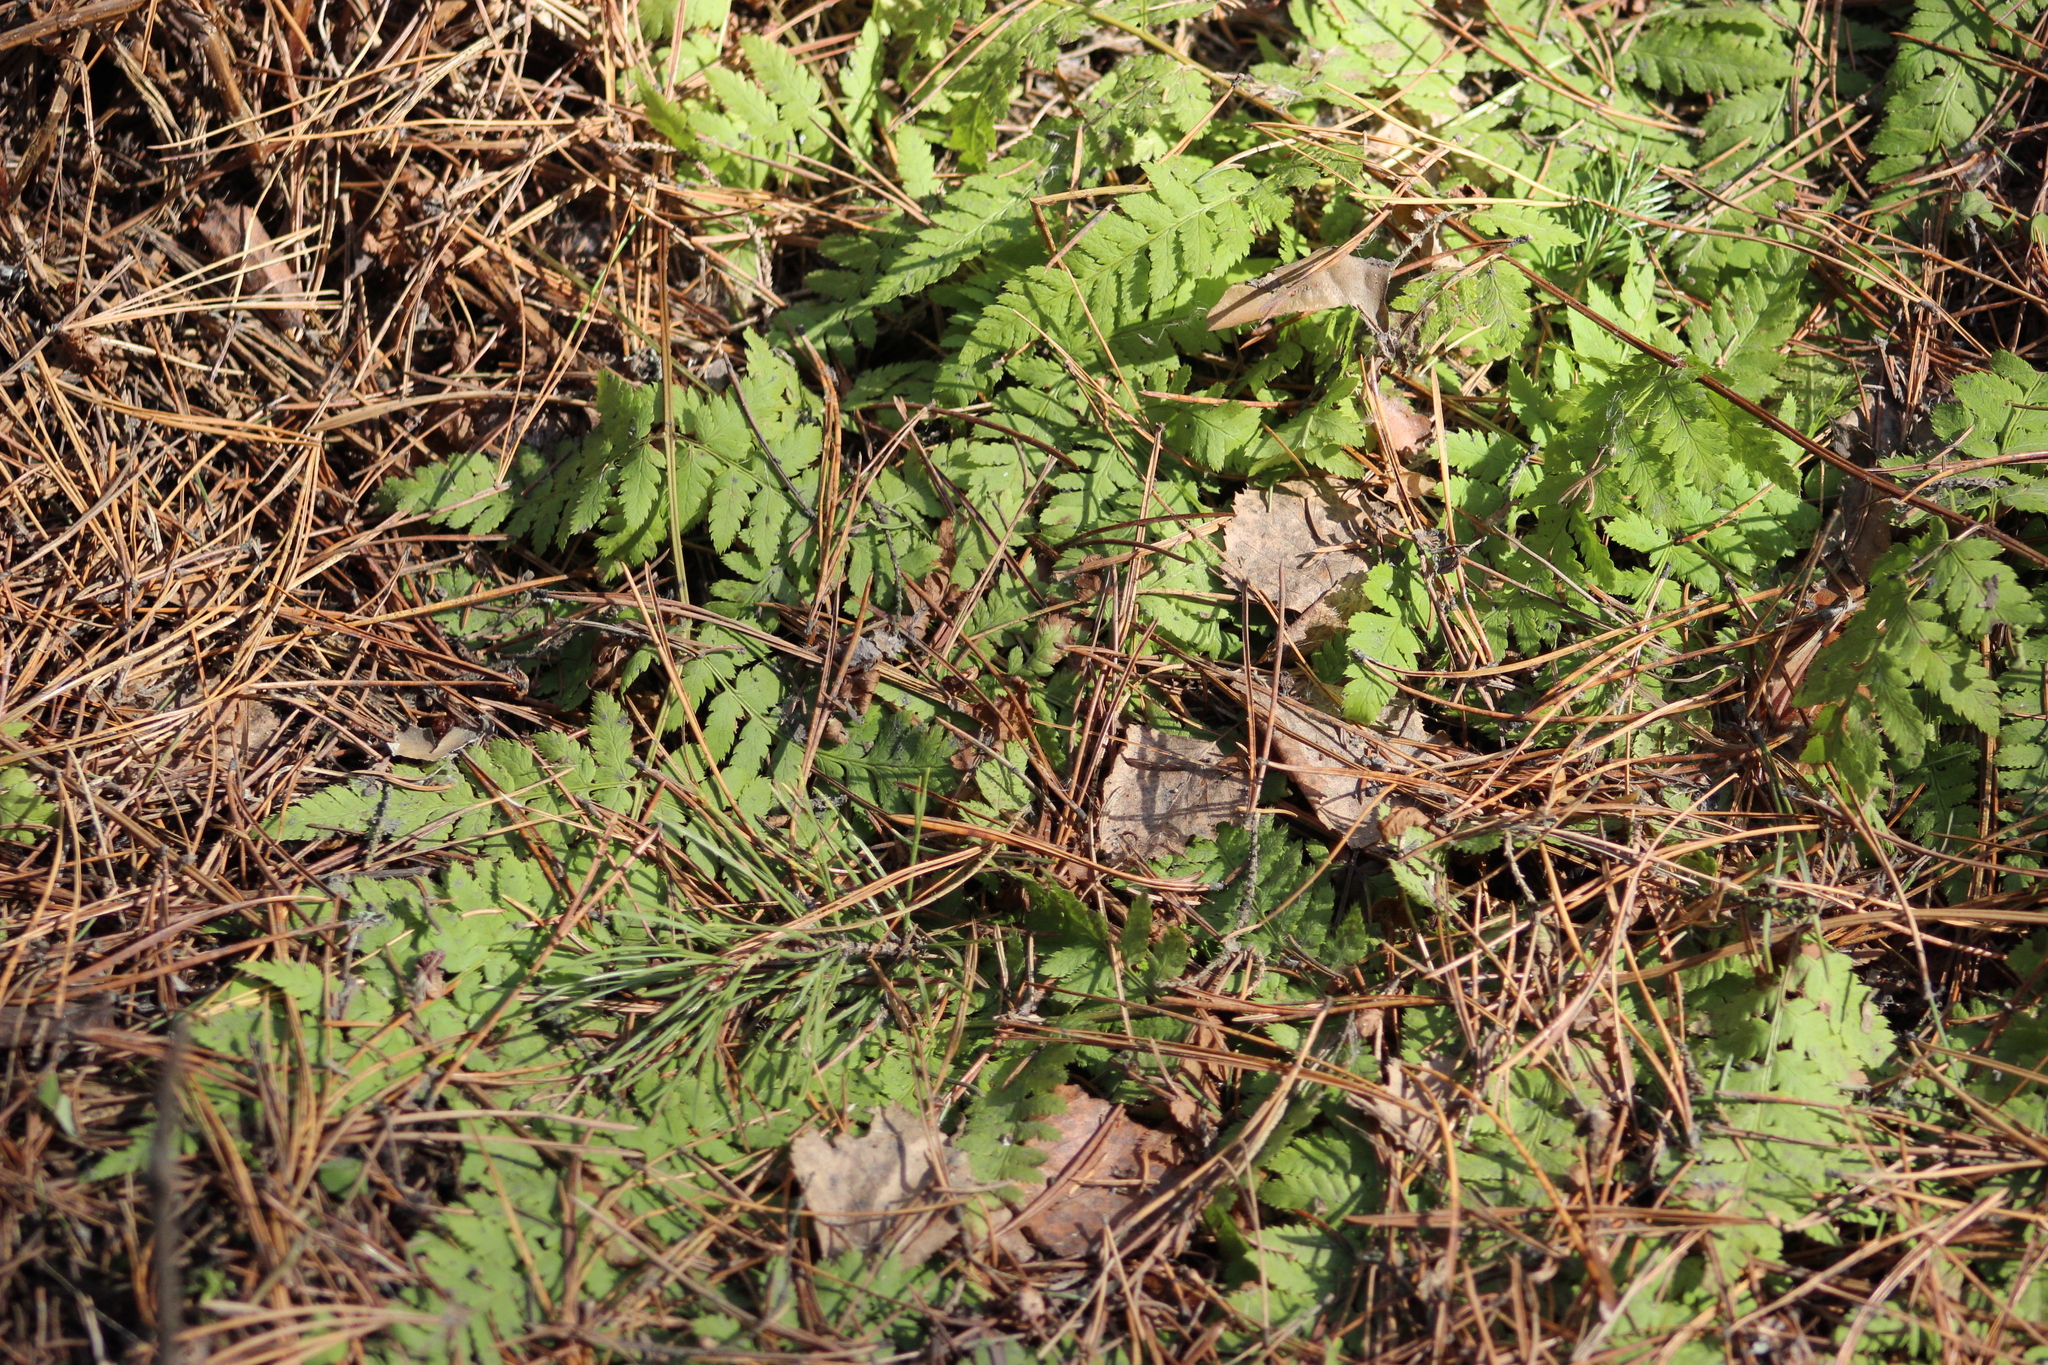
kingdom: Plantae
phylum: Tracheophyta
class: Polypodiopsida
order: Polypodiales
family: Dryopteridaceae
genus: Dryopteris
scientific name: Dryopteris carthusiana
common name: Narrow buckler-fern
